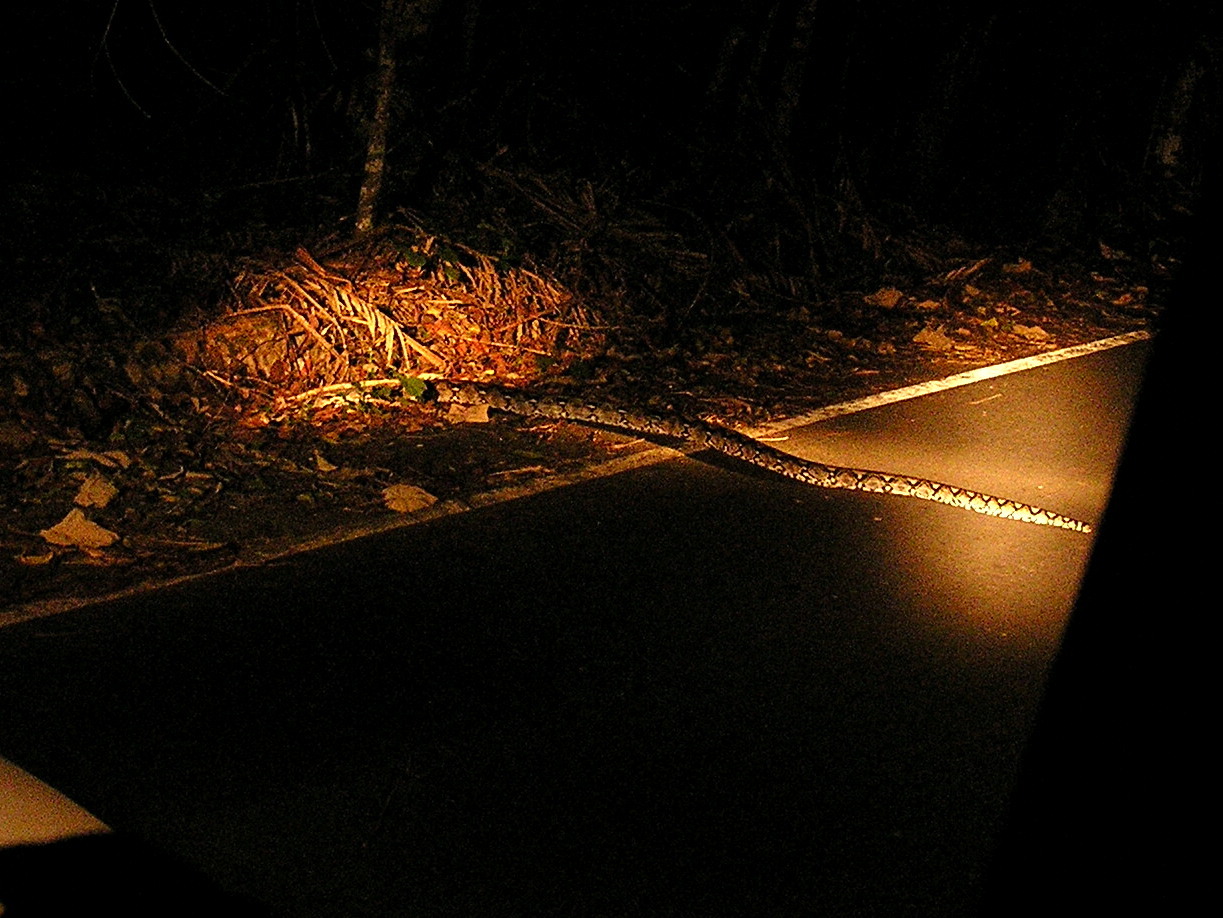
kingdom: Animalia
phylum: Chordata
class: Squamata
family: Pythonidae
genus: Malayopython
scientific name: Malayopython reticulatus
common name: Reticulated python
